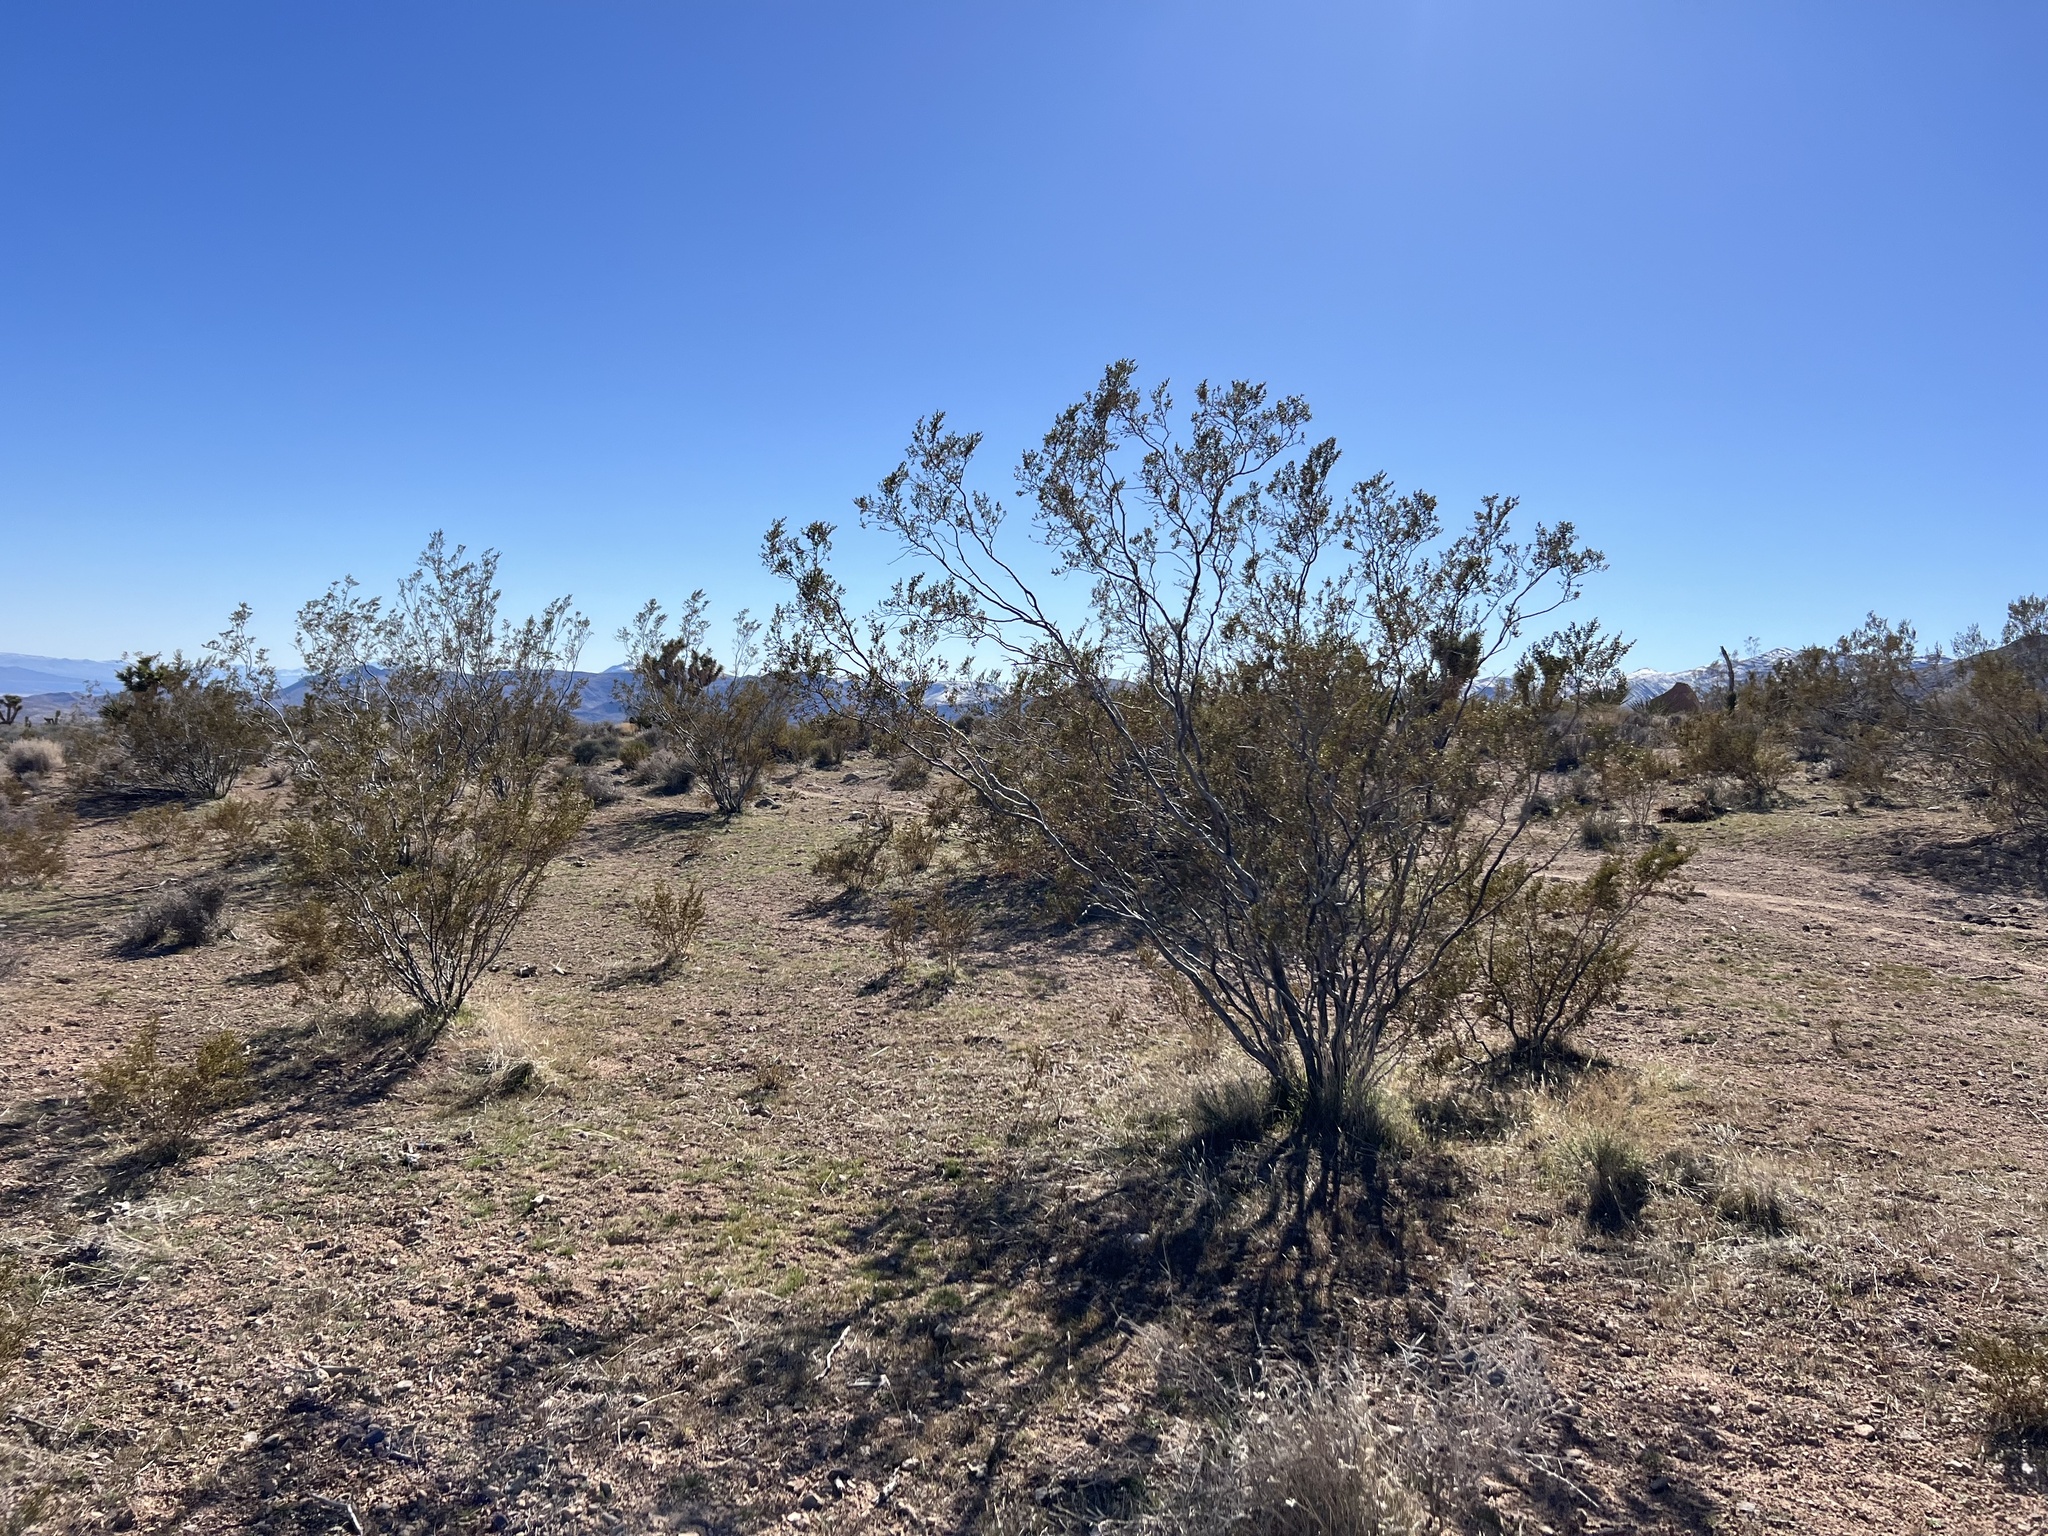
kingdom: Plantae
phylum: Tracheophyta
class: Magnoliopsida
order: Zygophyllales
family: Zygophyllaceae
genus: Larrea
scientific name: Larrea tridentata
